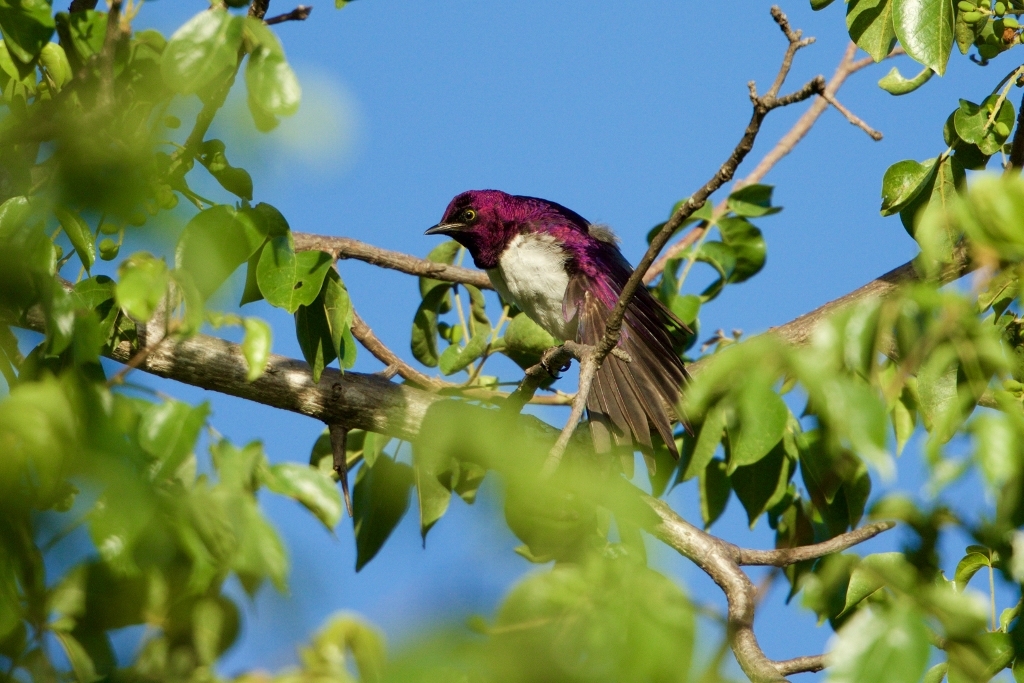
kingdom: Animalia
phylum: Chordata
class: Aves
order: Passeriformes
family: Sturnidae
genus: Cinnyricinclus
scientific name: Cinnyricinclus leucogaster
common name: Violet-backed starling
